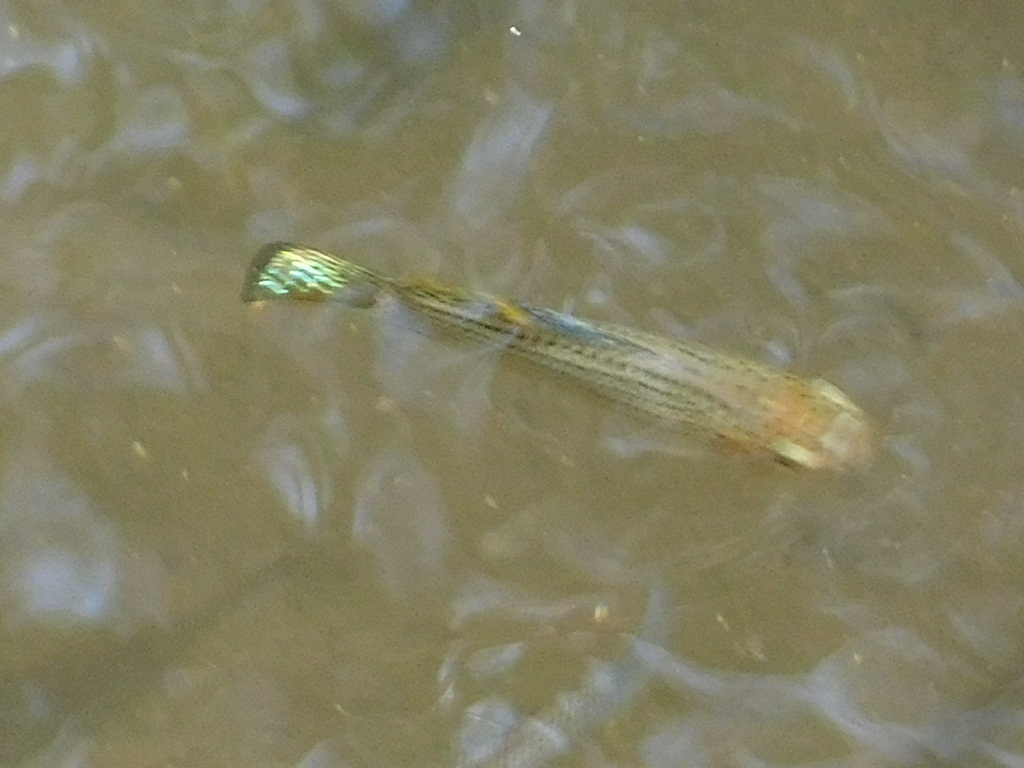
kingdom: Animalia
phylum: Chordata
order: Cyprinodontiformes
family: Poeciliidae
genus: Poecilia
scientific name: Poecilia latipinna
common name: Sailfin molly
